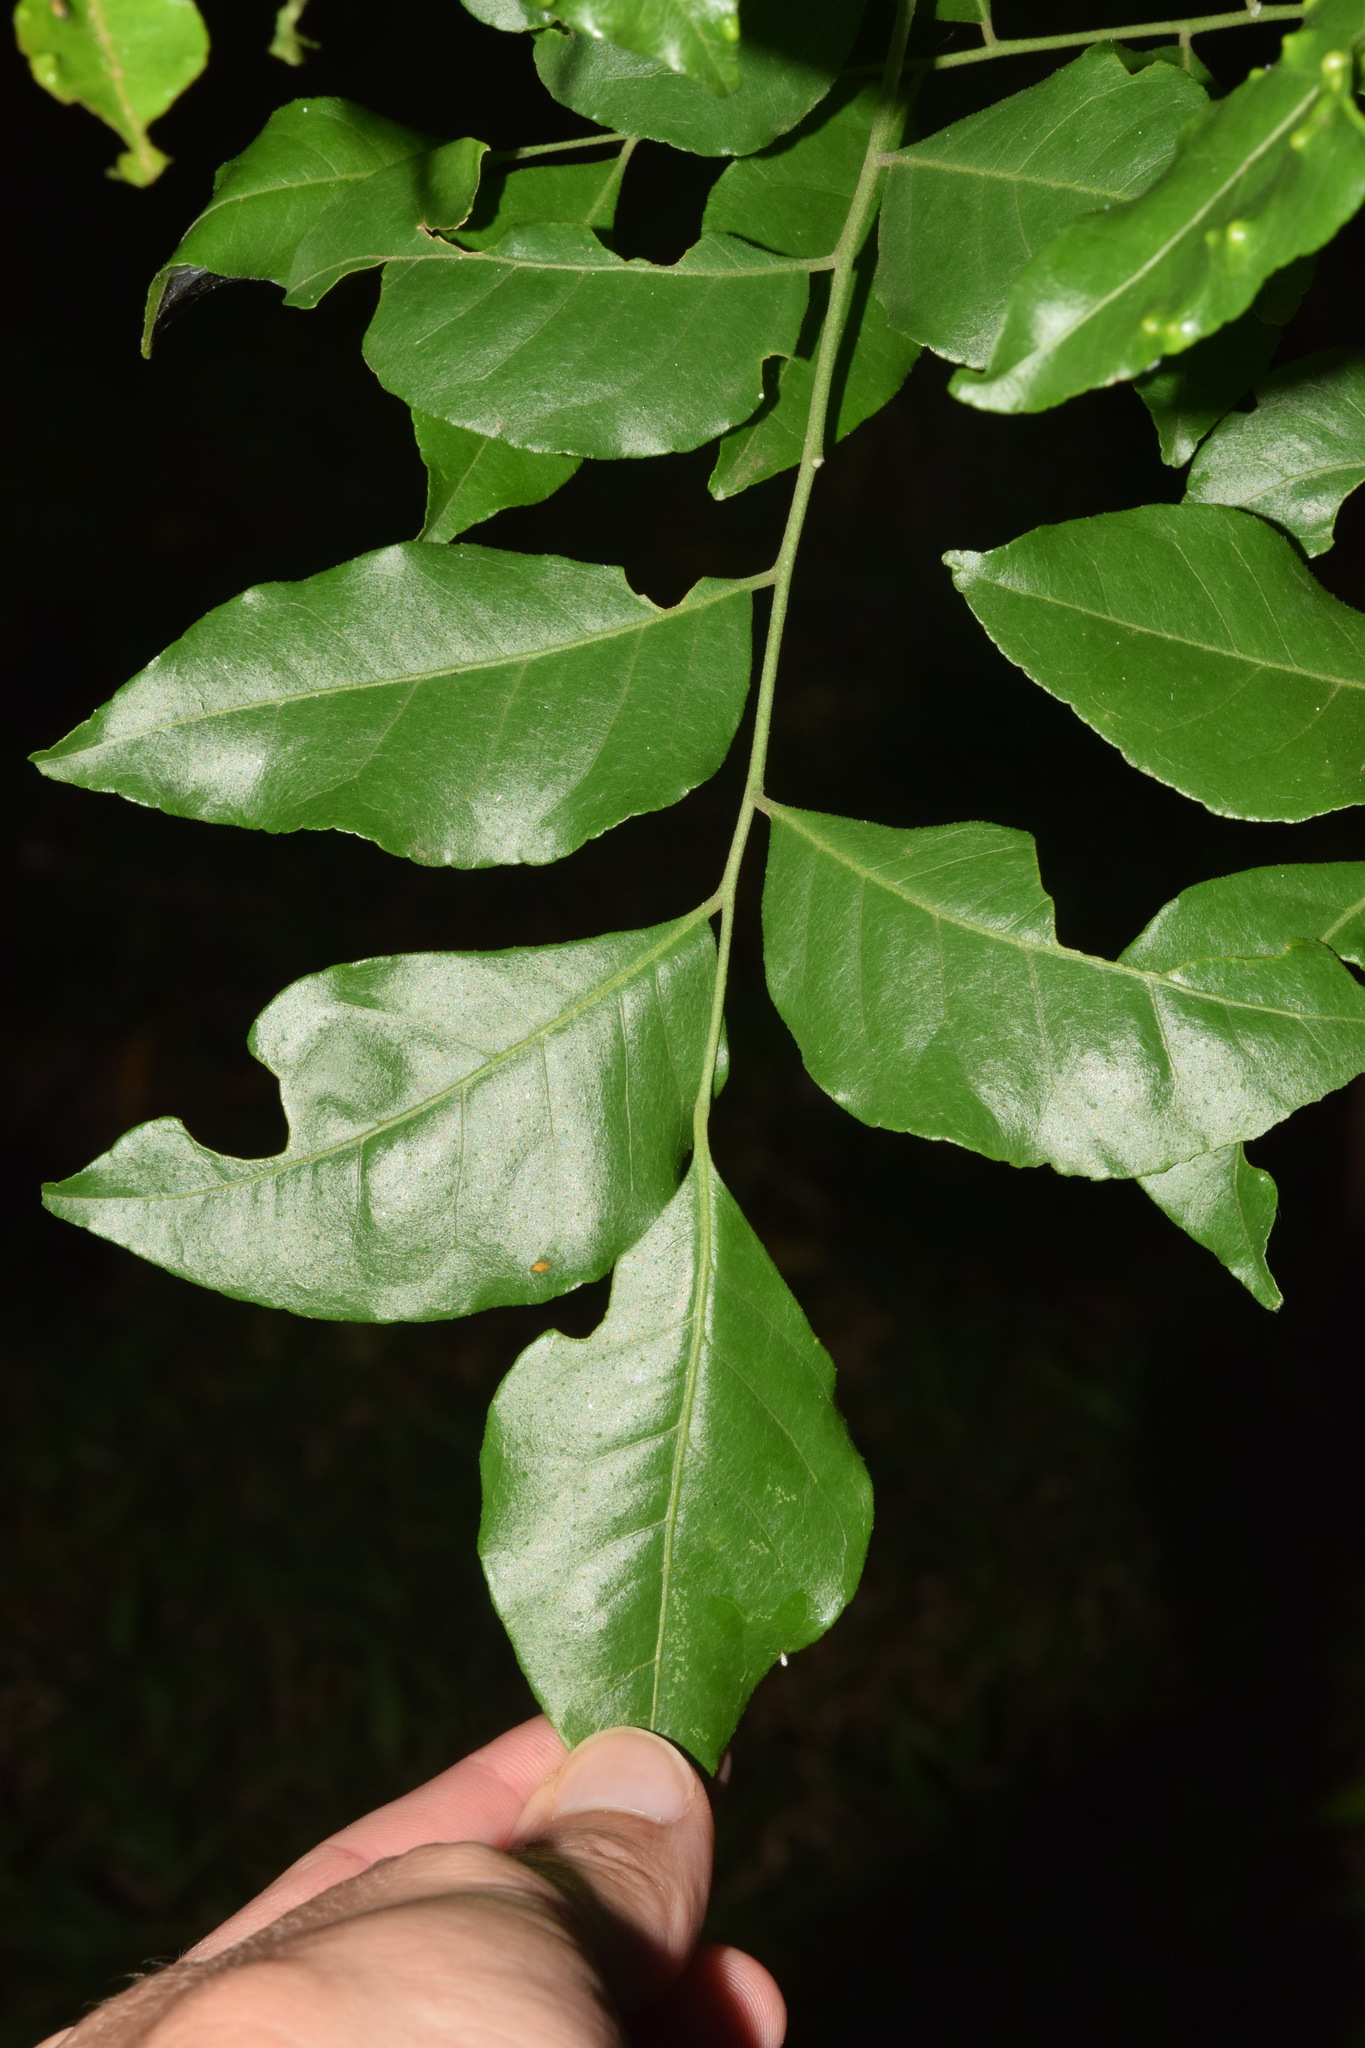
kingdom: Plantae
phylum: Tracheophyta
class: Magnoliopsida
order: Sapindales
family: Rutaceae
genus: Clausena
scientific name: Clausena anisata
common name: Horsewood
